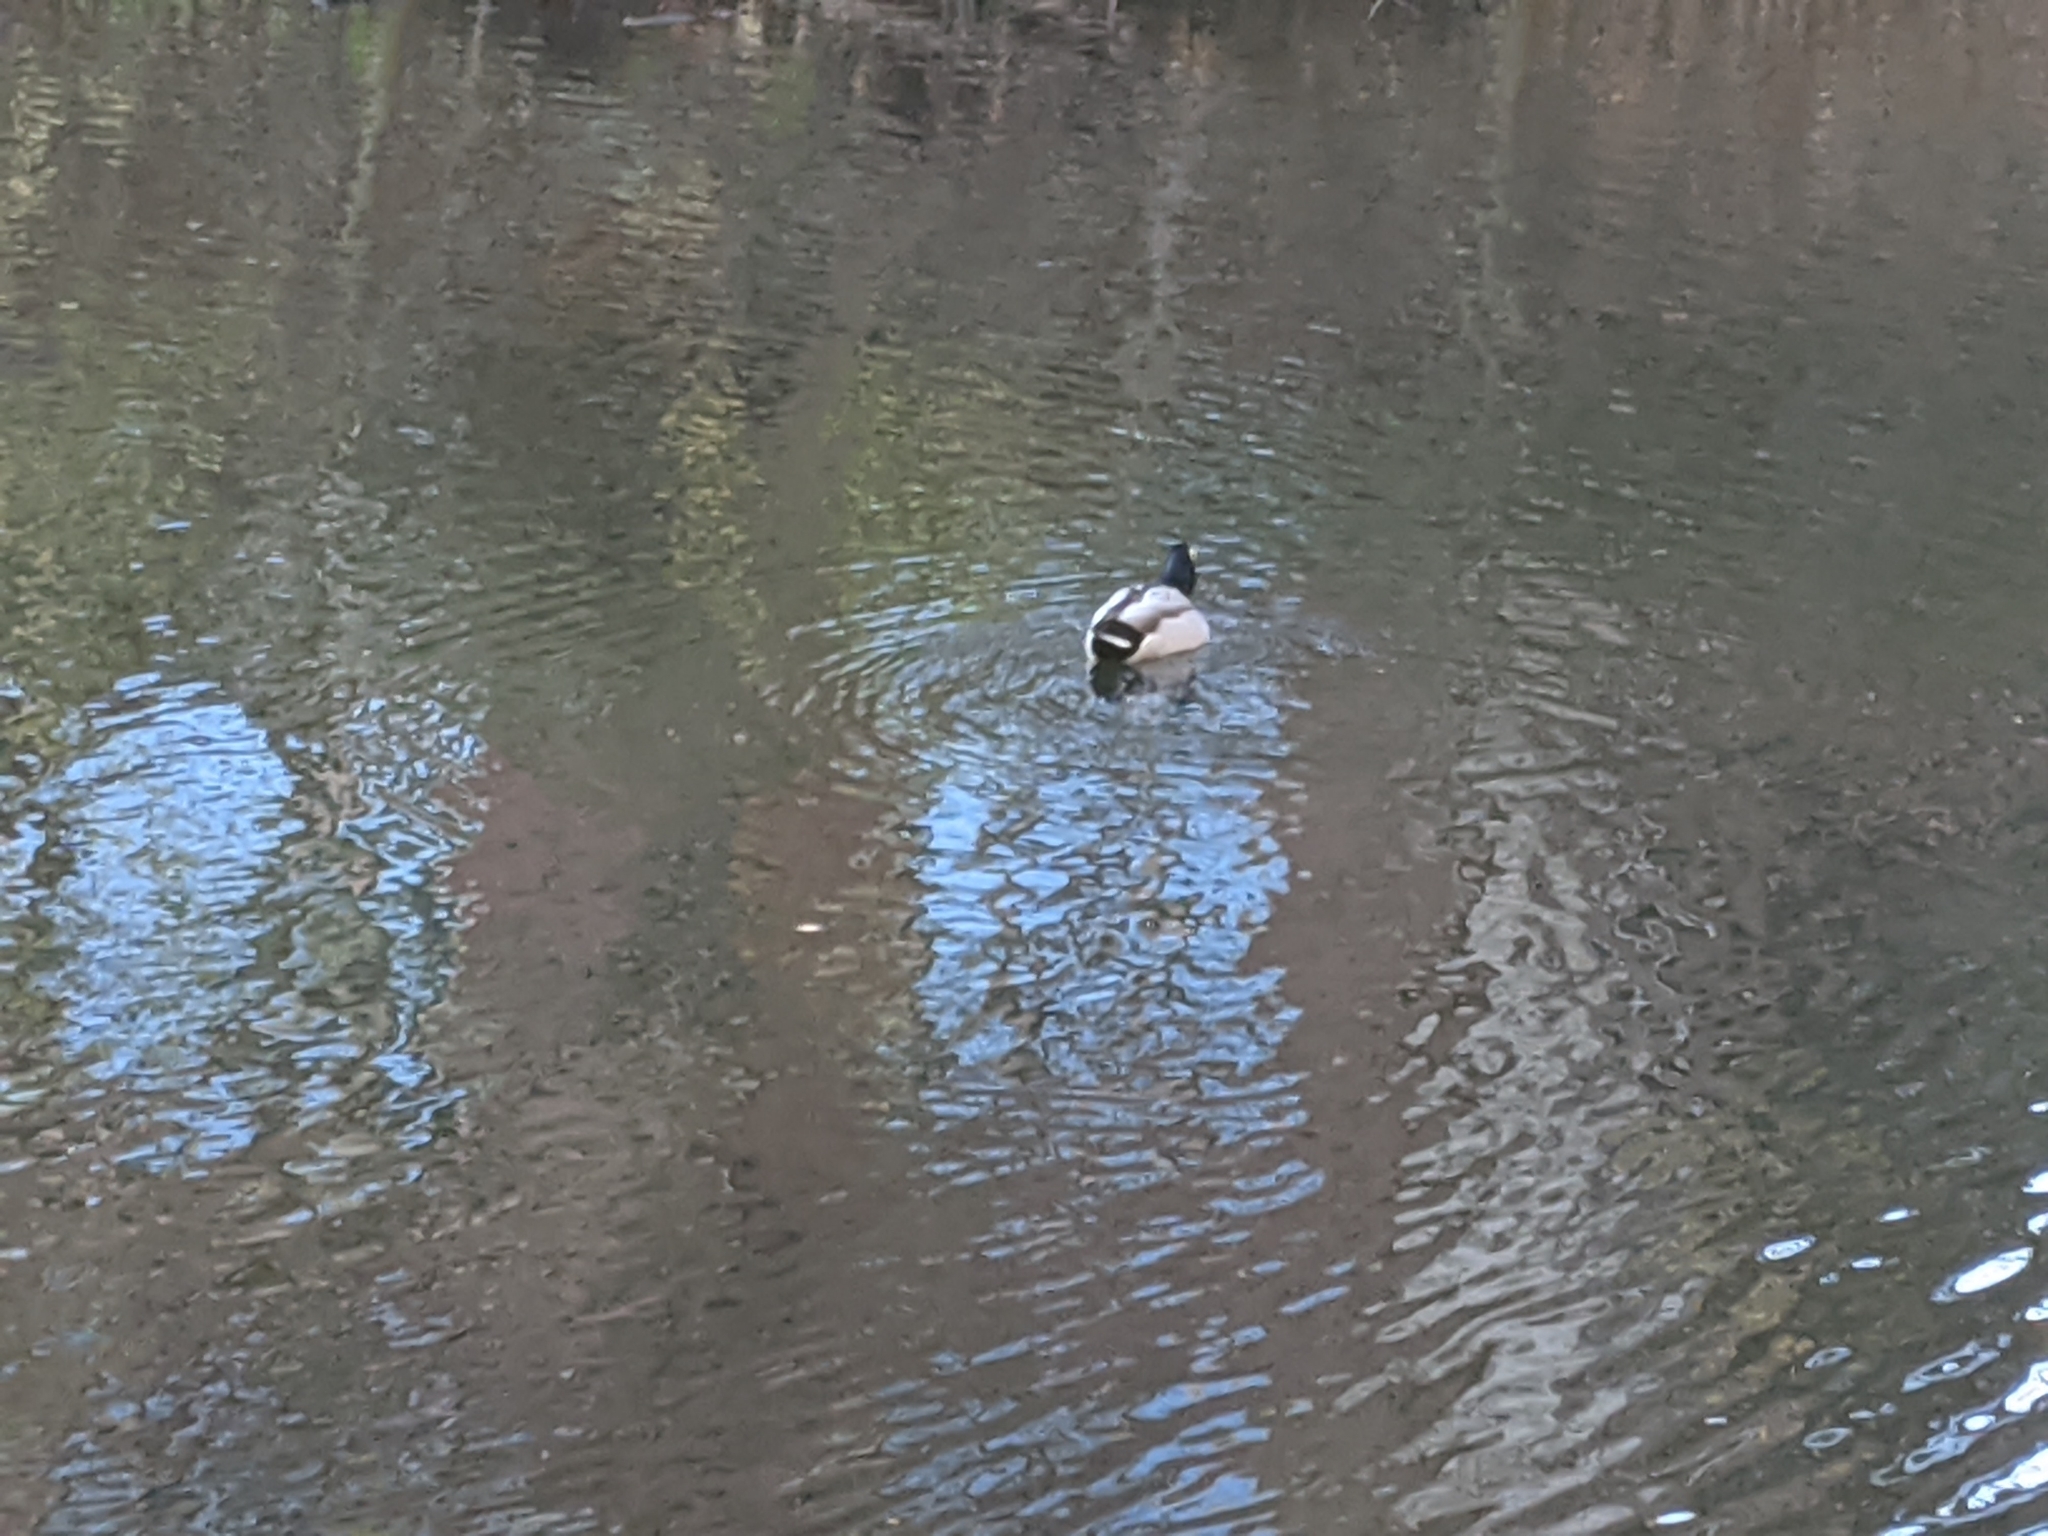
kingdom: Animalia
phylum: Chordata
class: Aves
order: Anseriformes
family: Anatidae
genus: Anas
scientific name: Anas platyrhynchos
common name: Mallard
